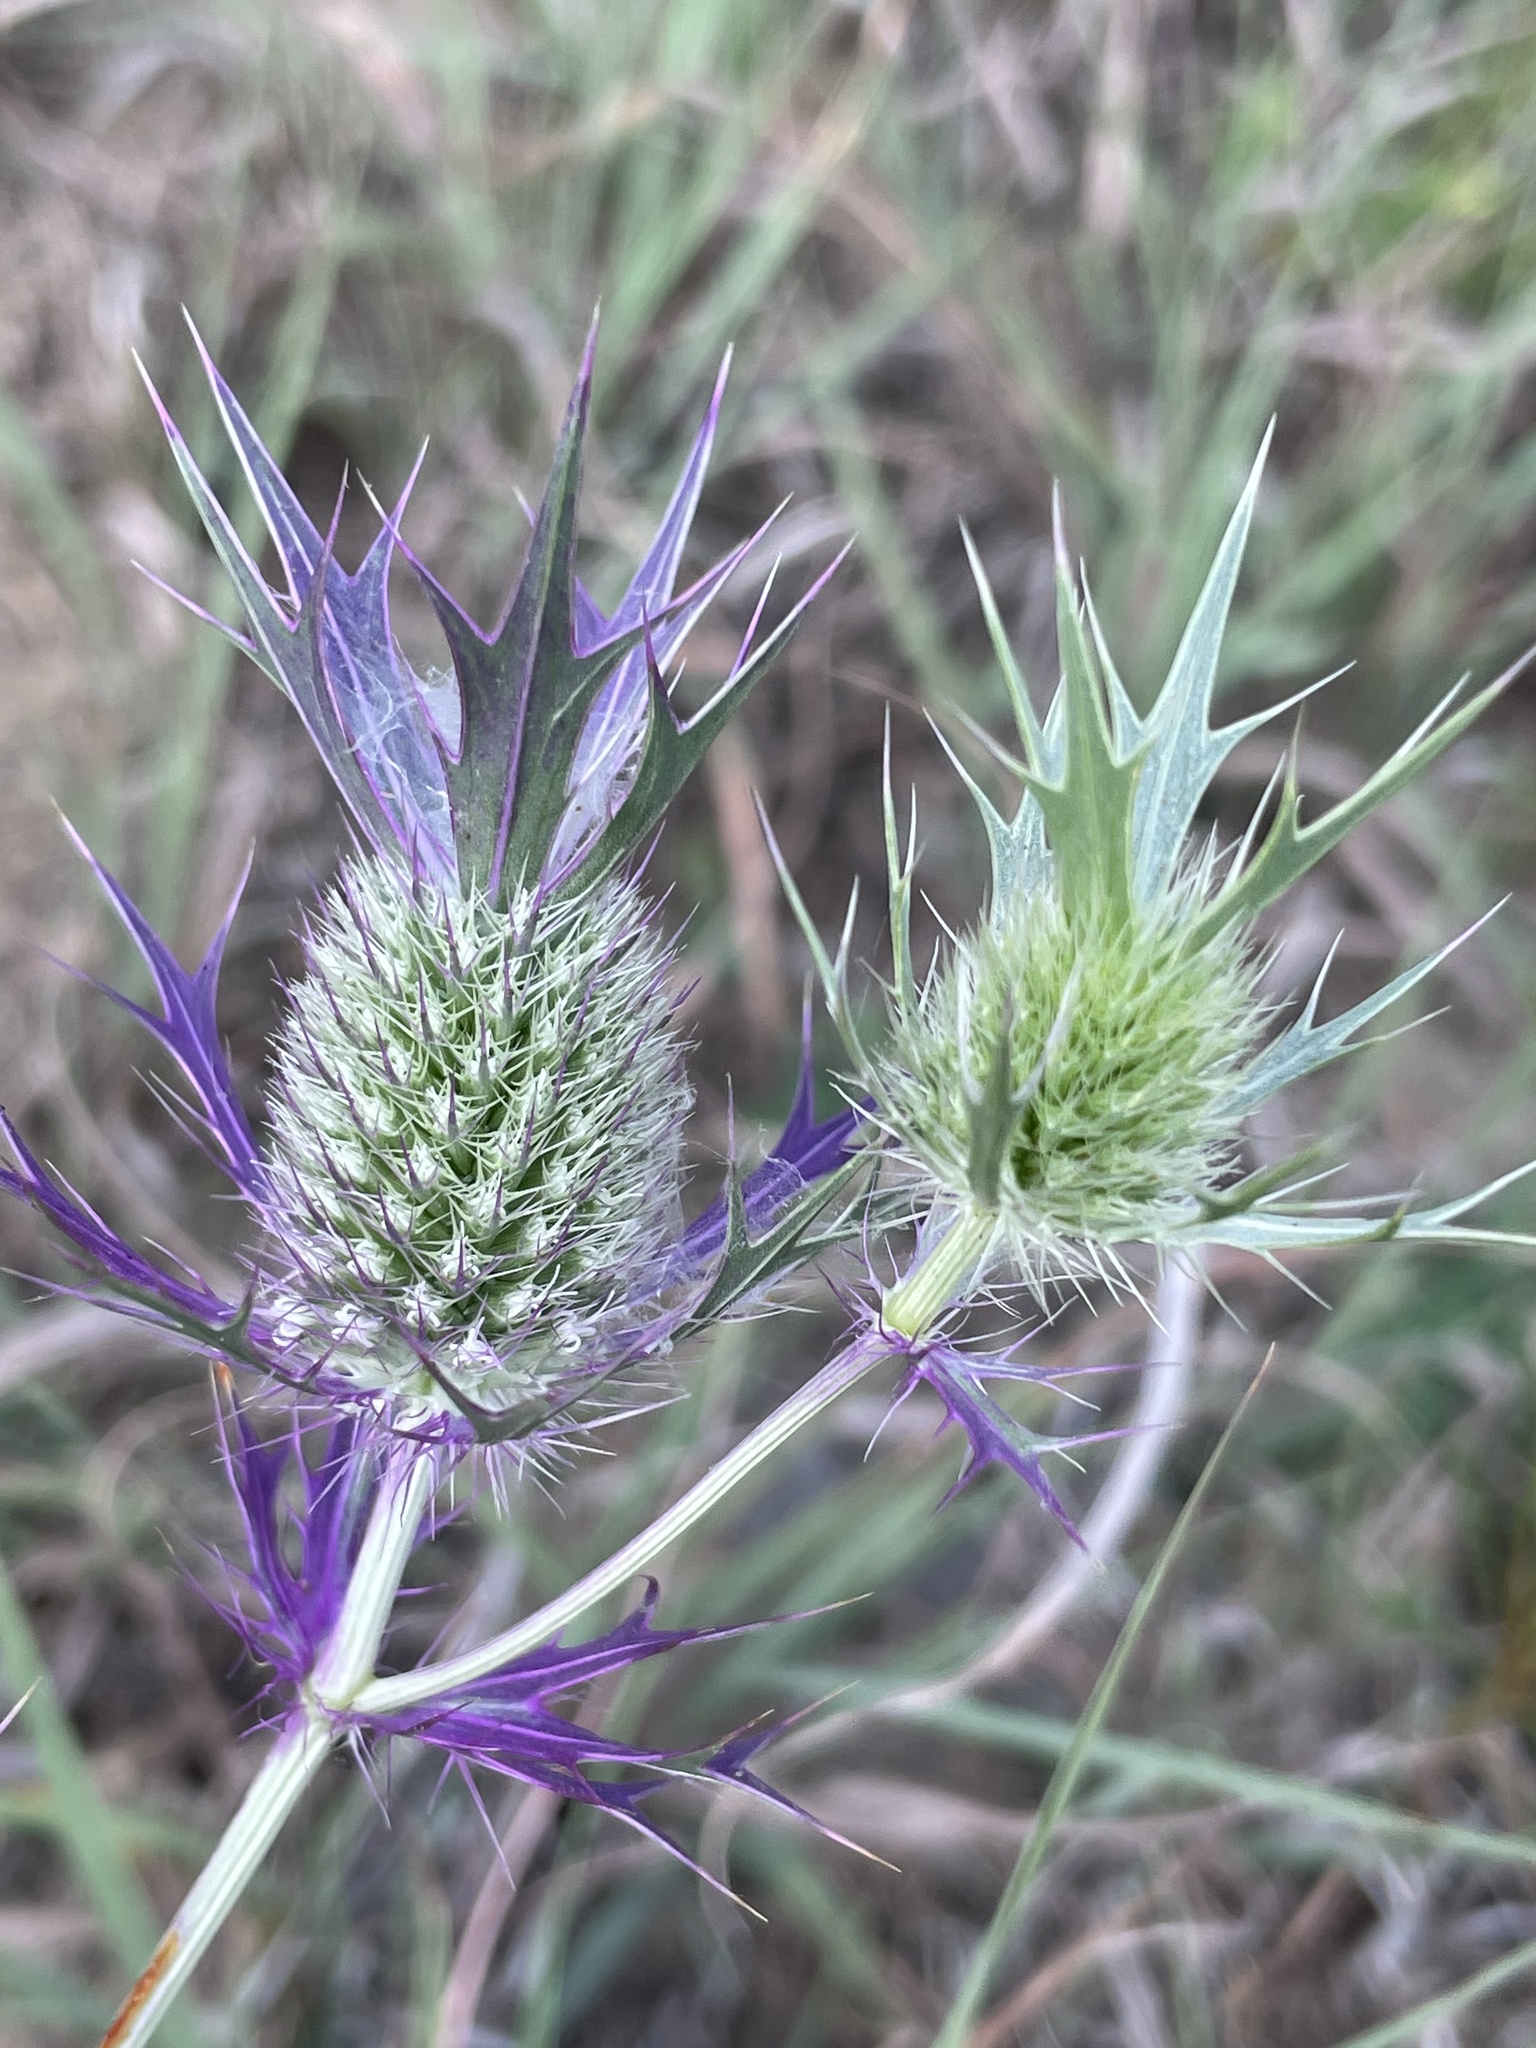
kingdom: Plantae
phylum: Tracheophyta
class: Magnoliopsida
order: Apiales
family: Apiaceae
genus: Eryngium
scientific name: Eryngium leavenworthii
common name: Leavenworth's eryngo
